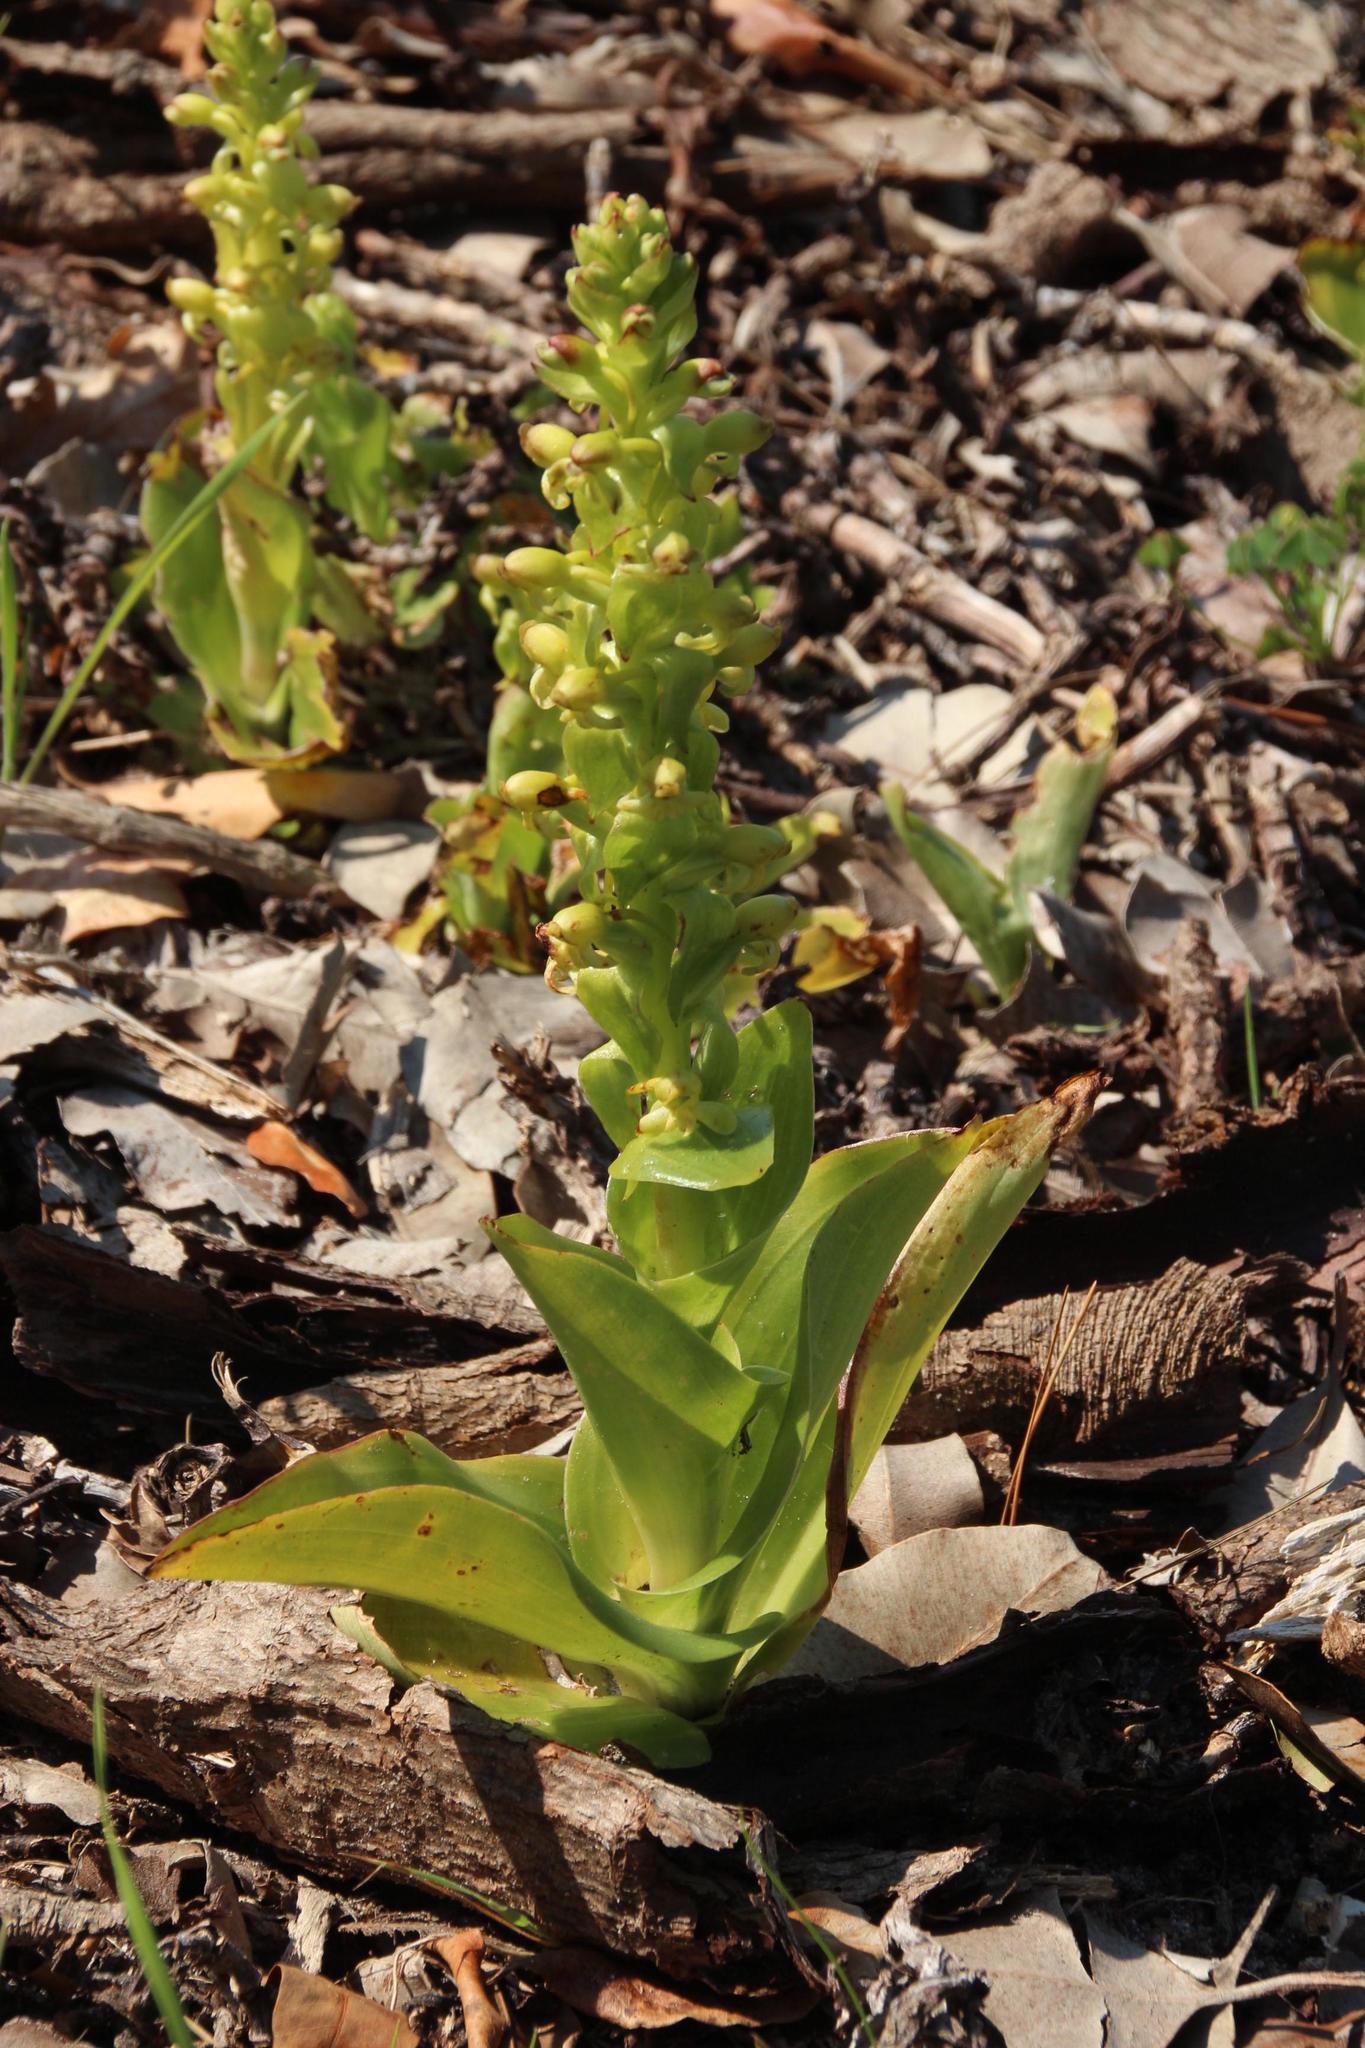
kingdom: Plantae
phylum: Tracheophyta
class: Liliopsida
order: Asparagales
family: Orchidaceae
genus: Satyrium
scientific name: Satyrium odorum
